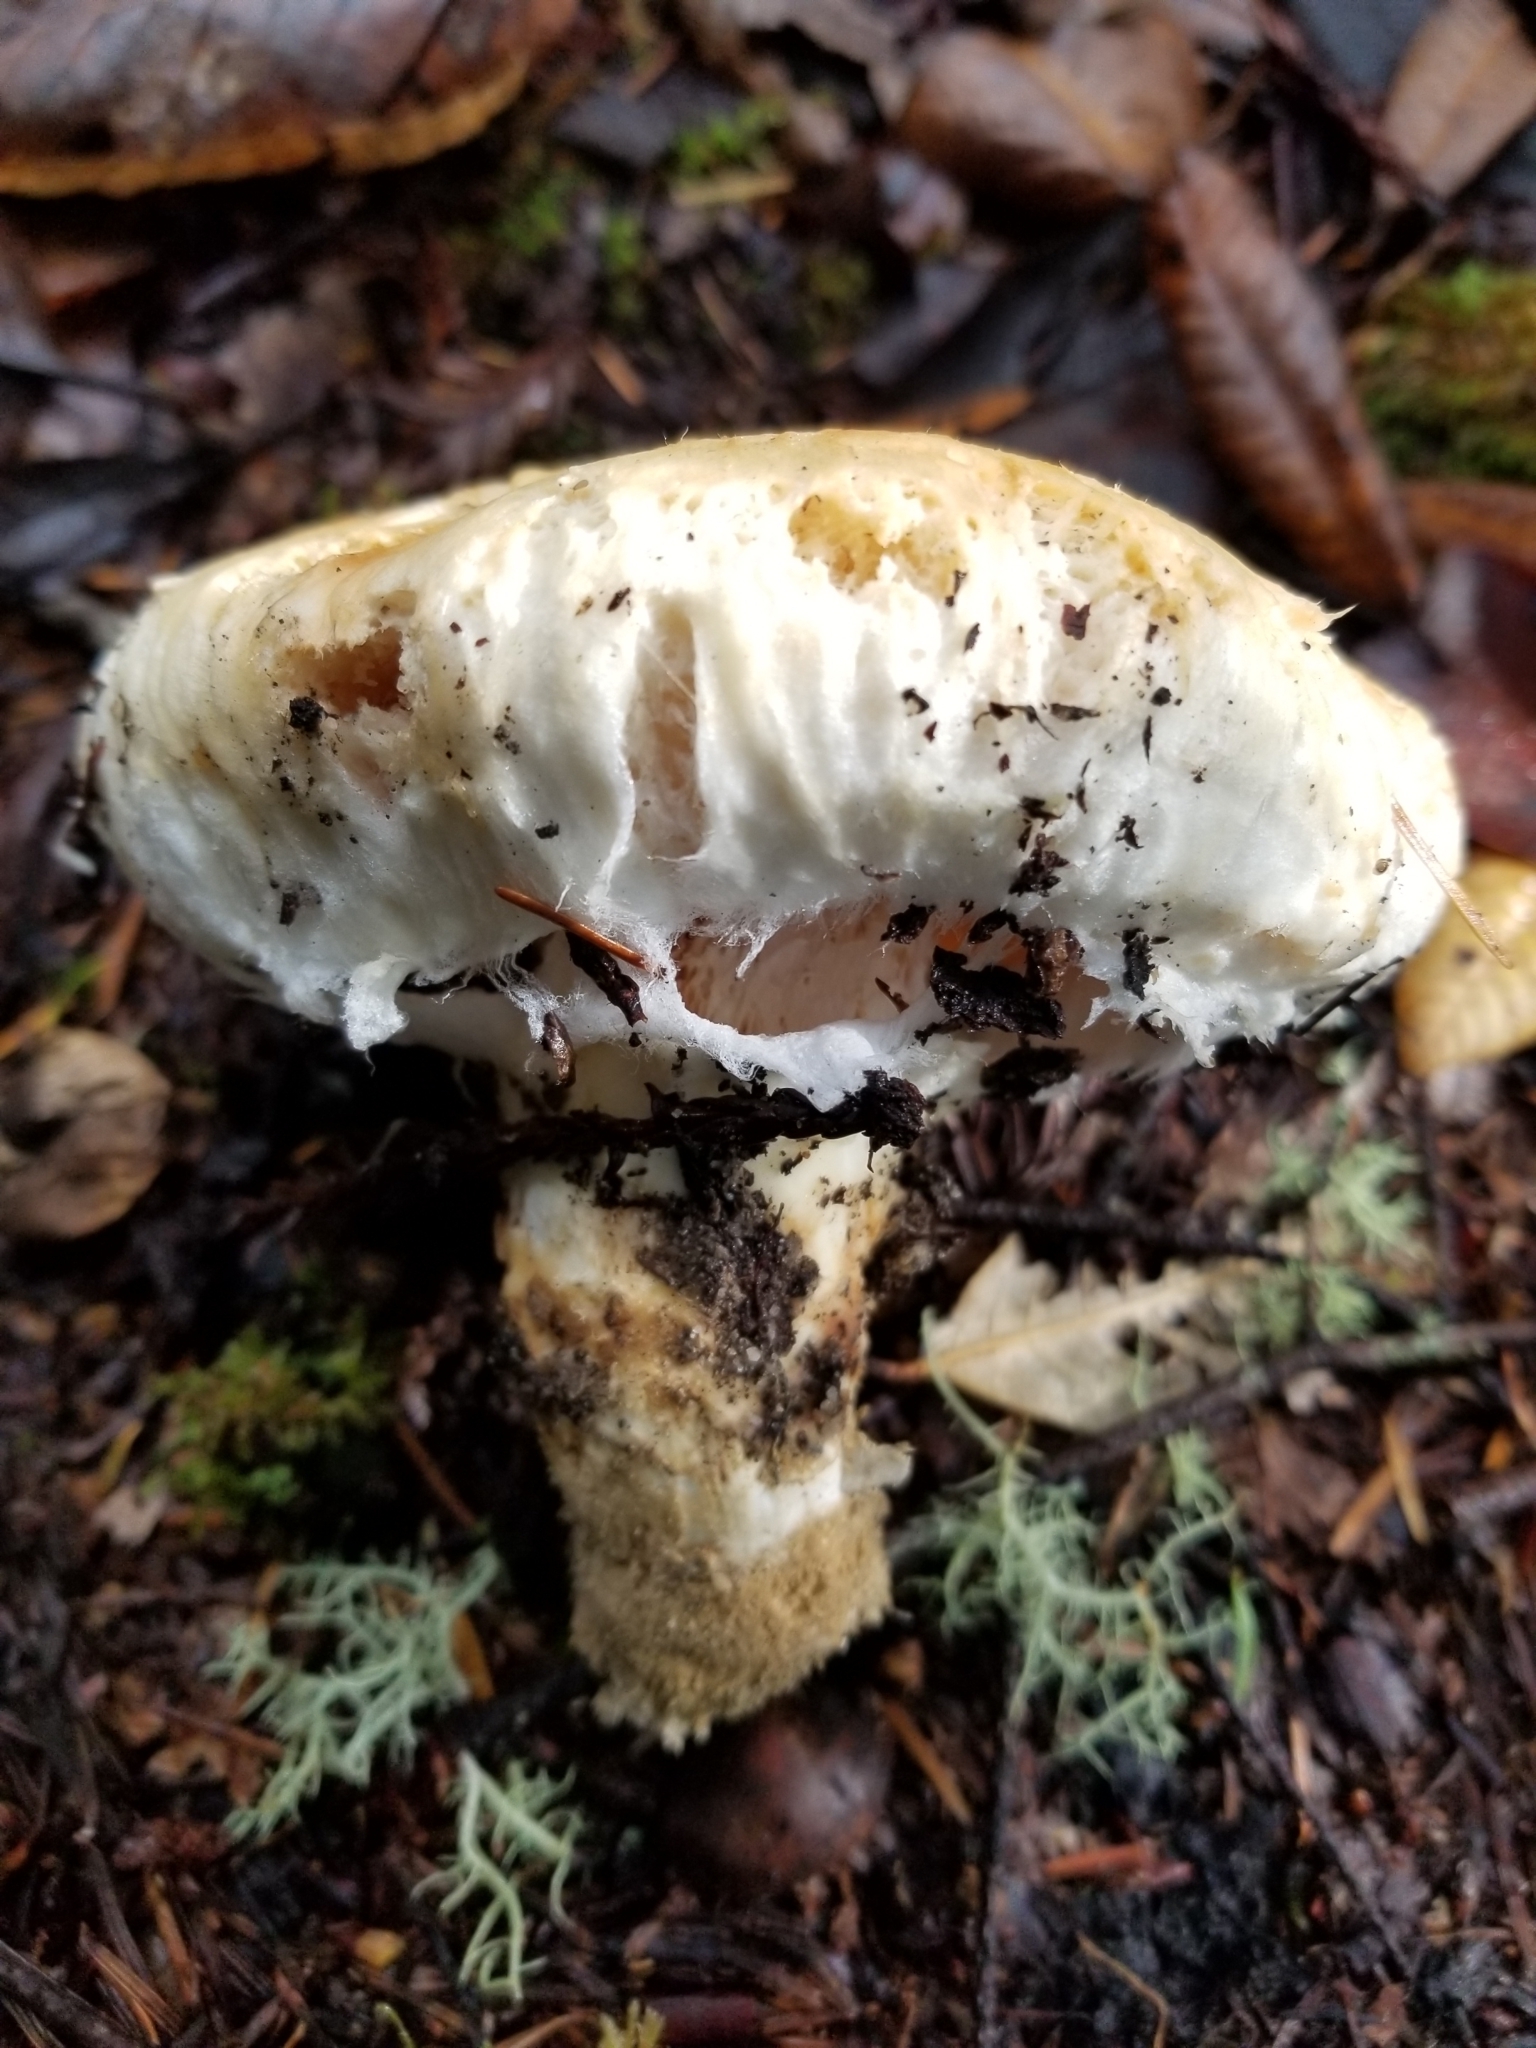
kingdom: Fungi
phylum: Basidiomycota
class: Agaricomycetes
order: Agaricales
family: Tricholomataceae
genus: Tricholoma
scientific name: Tricholoma murrillianum
